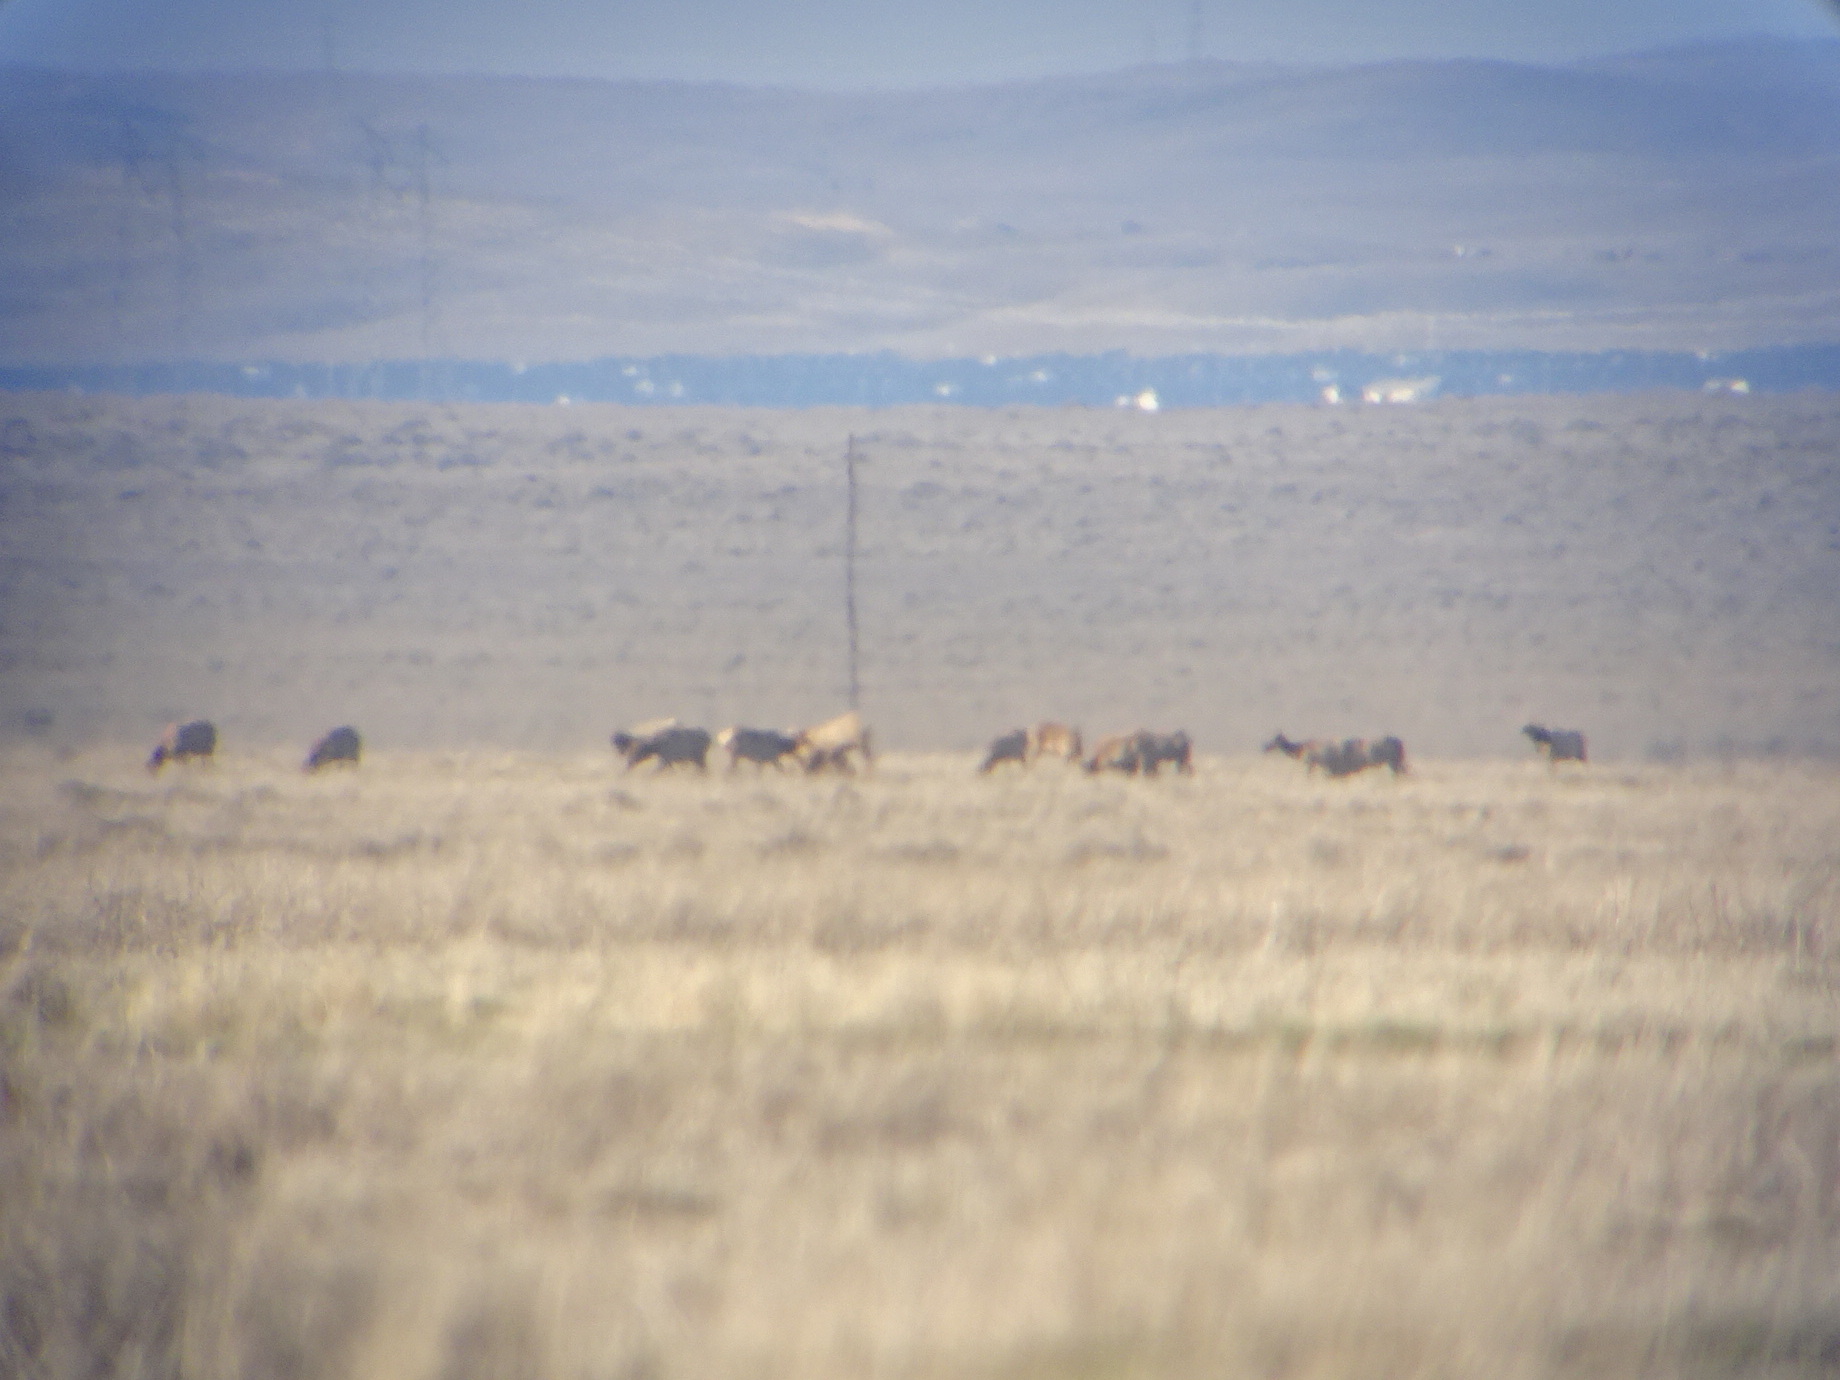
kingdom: Animalia
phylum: Chordata
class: Mammalia
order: Artiodactyla
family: Cervidae
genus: Cervus
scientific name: Cervus elaphus
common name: Red deer
